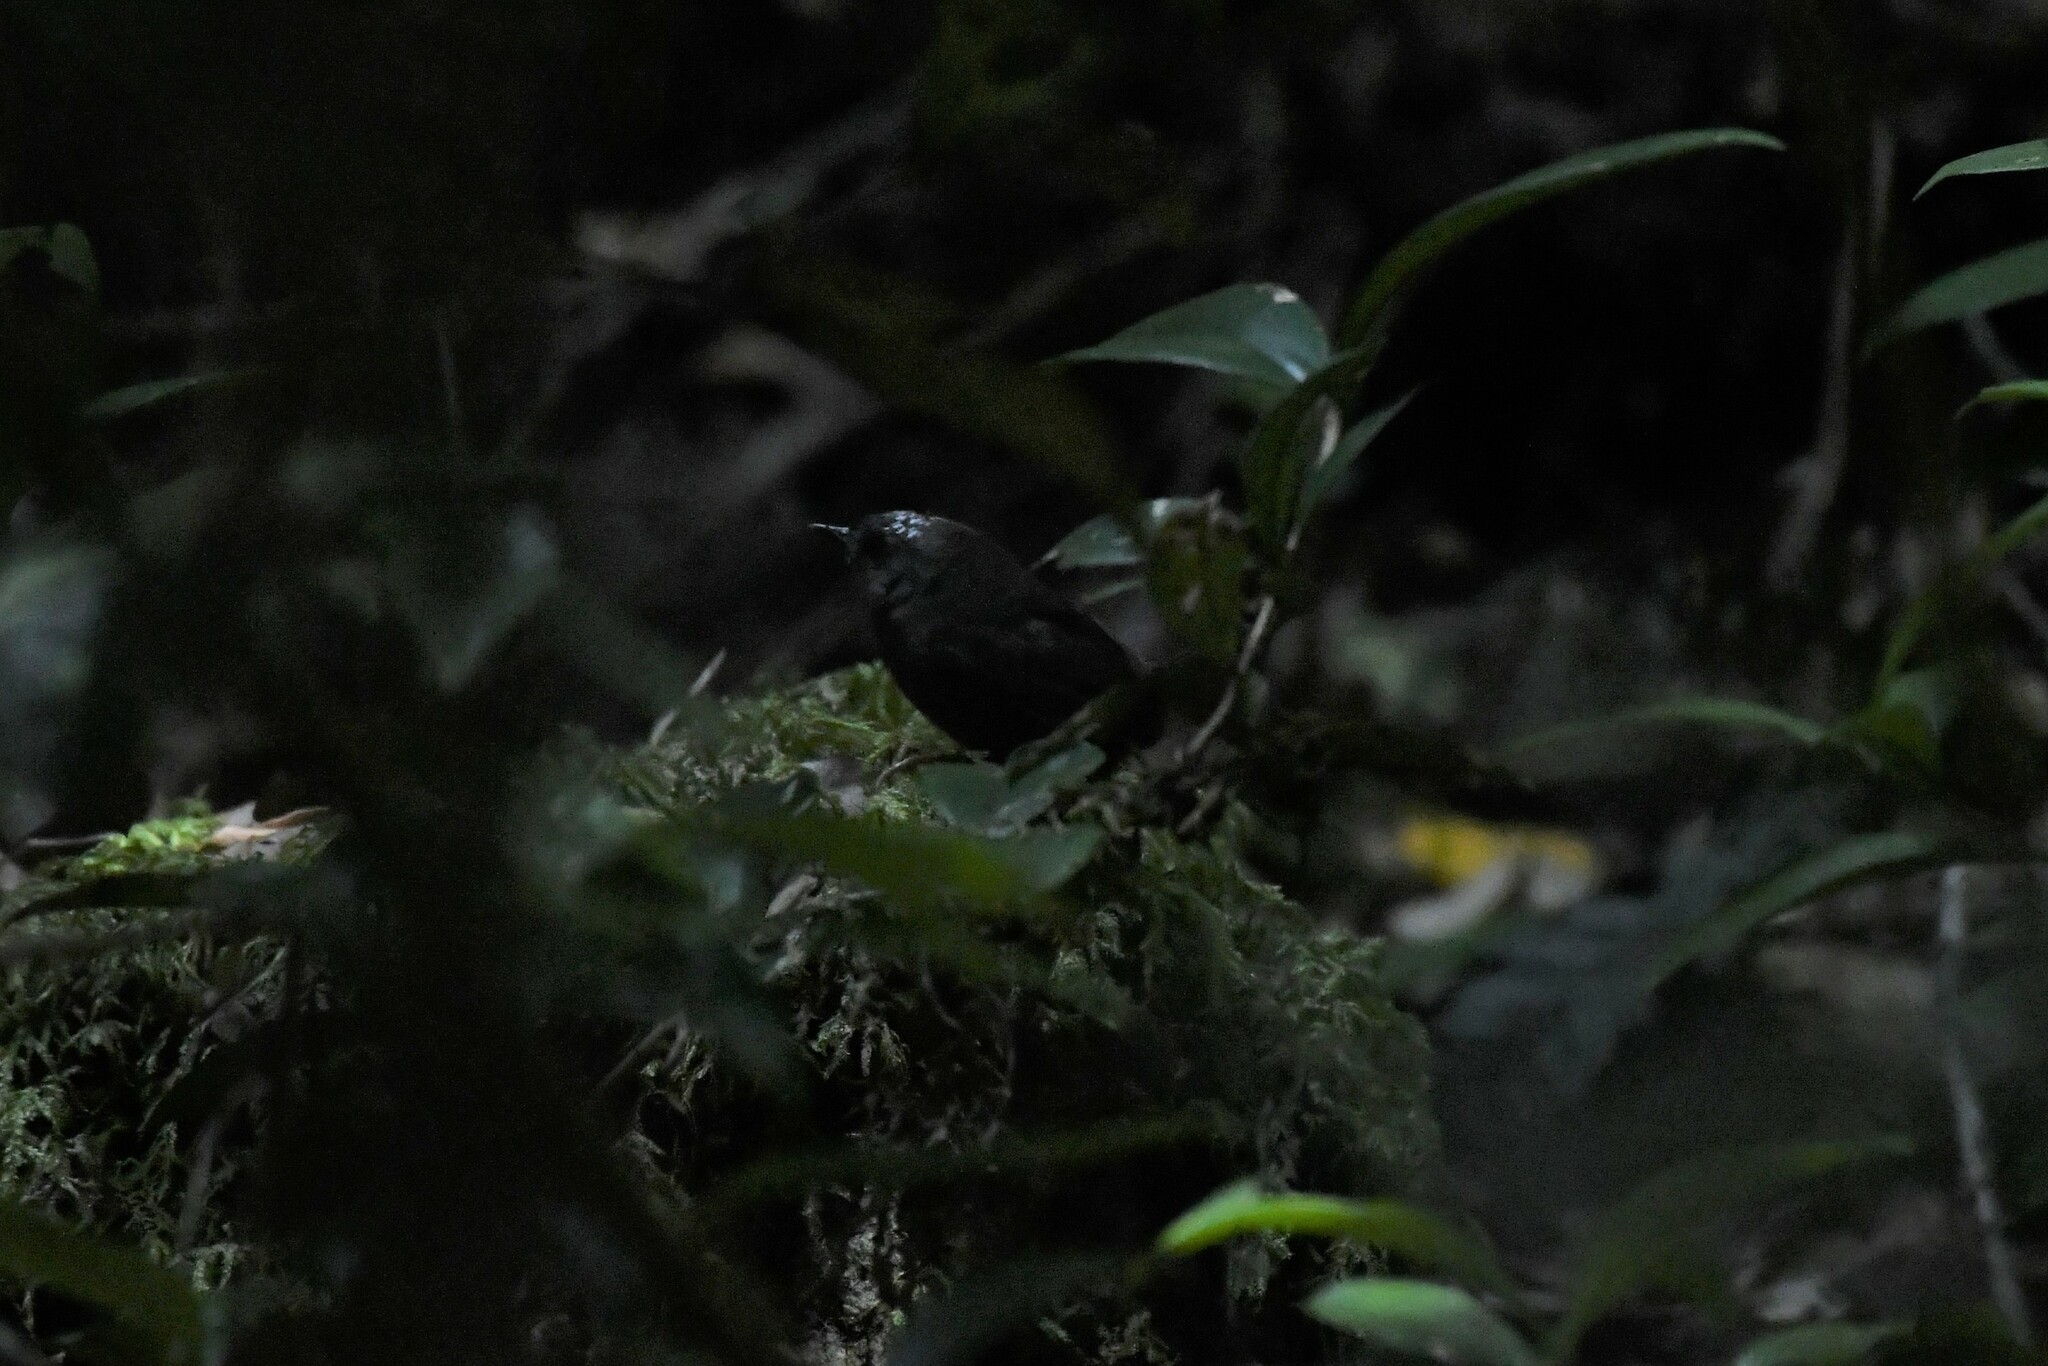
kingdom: Animalia
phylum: Chordata
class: Aves
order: Passeriformes
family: Rhinocryptidae
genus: Scytalopus
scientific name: Scytalopus magellanicus
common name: Magellanic tapaculo
